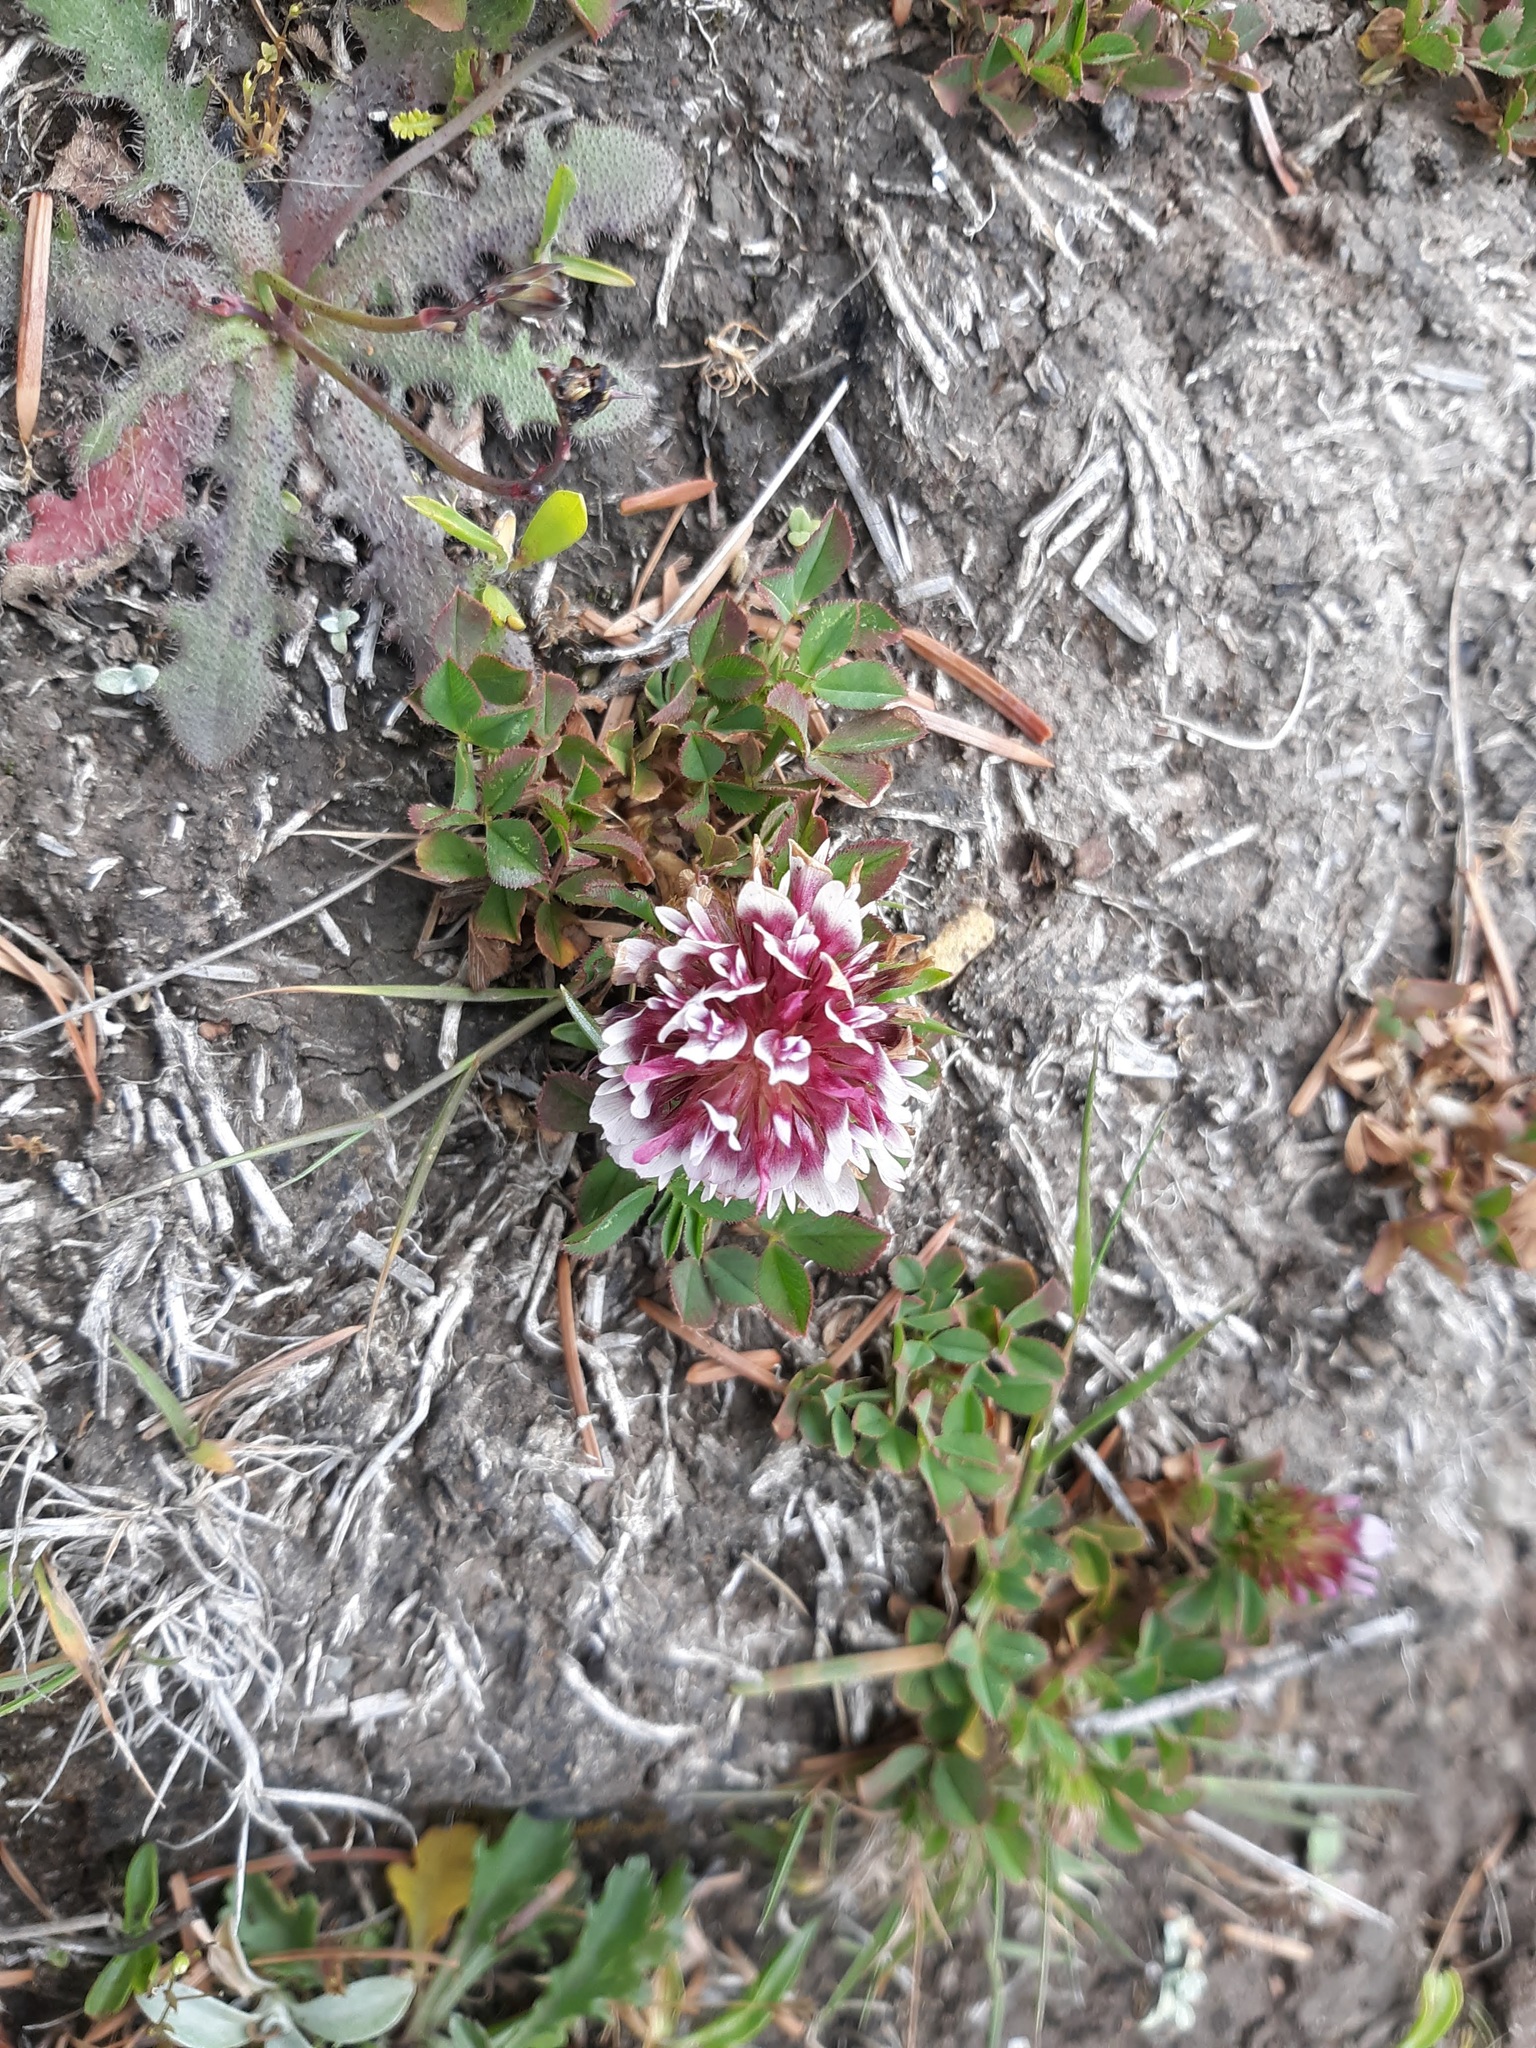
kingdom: Plantae
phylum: Tracheophyta
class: Magnoliopsida
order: Fabales
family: Fabaceae
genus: Trifolium
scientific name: Trifolium wormskioldii
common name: Springbank clover
